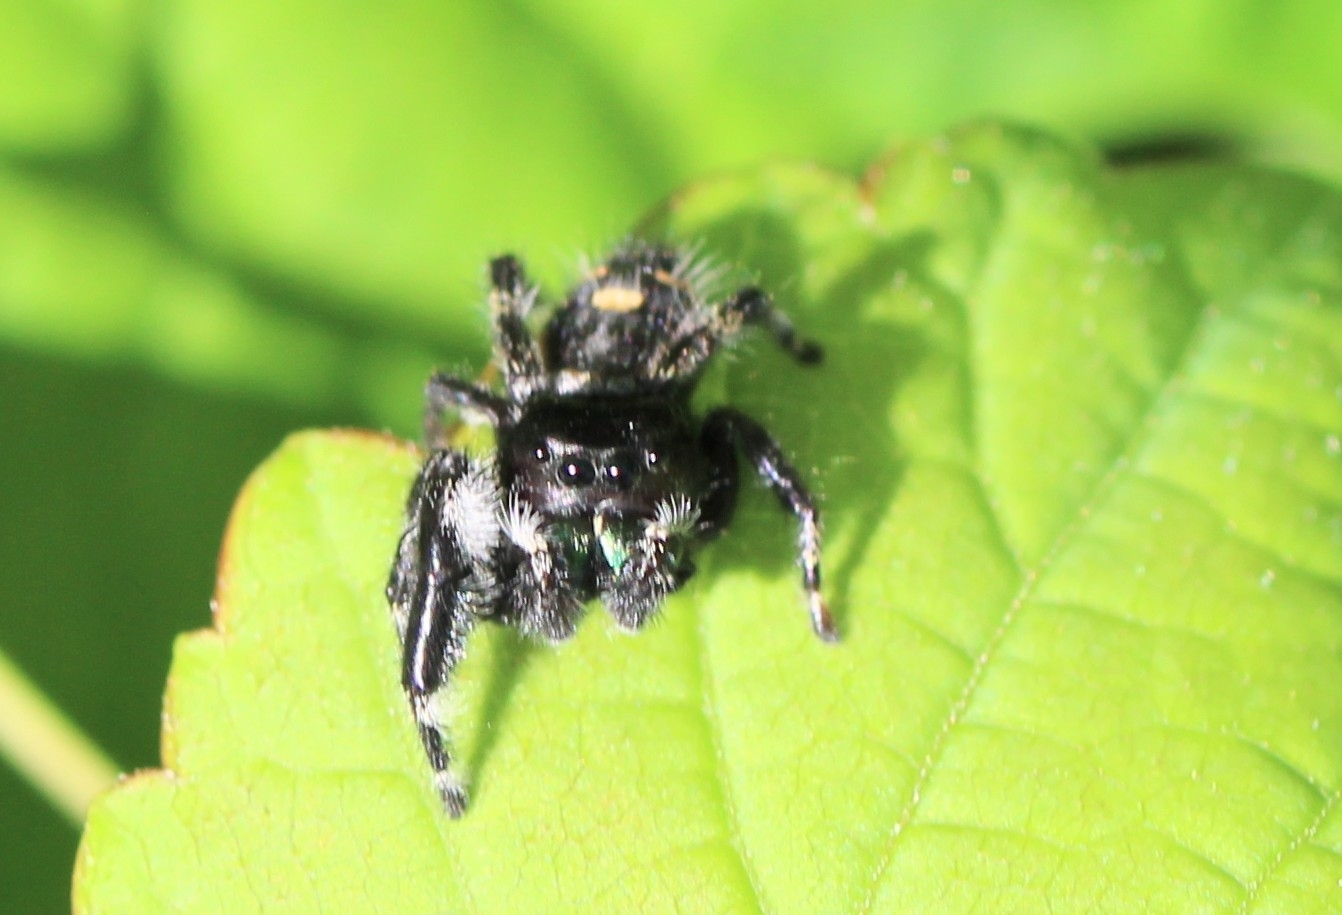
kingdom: Animalia
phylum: Arthropoda
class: Arachnida
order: Araneae
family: Salticidae
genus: Phidippus
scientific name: Phidippus audax
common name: Bold jumper
